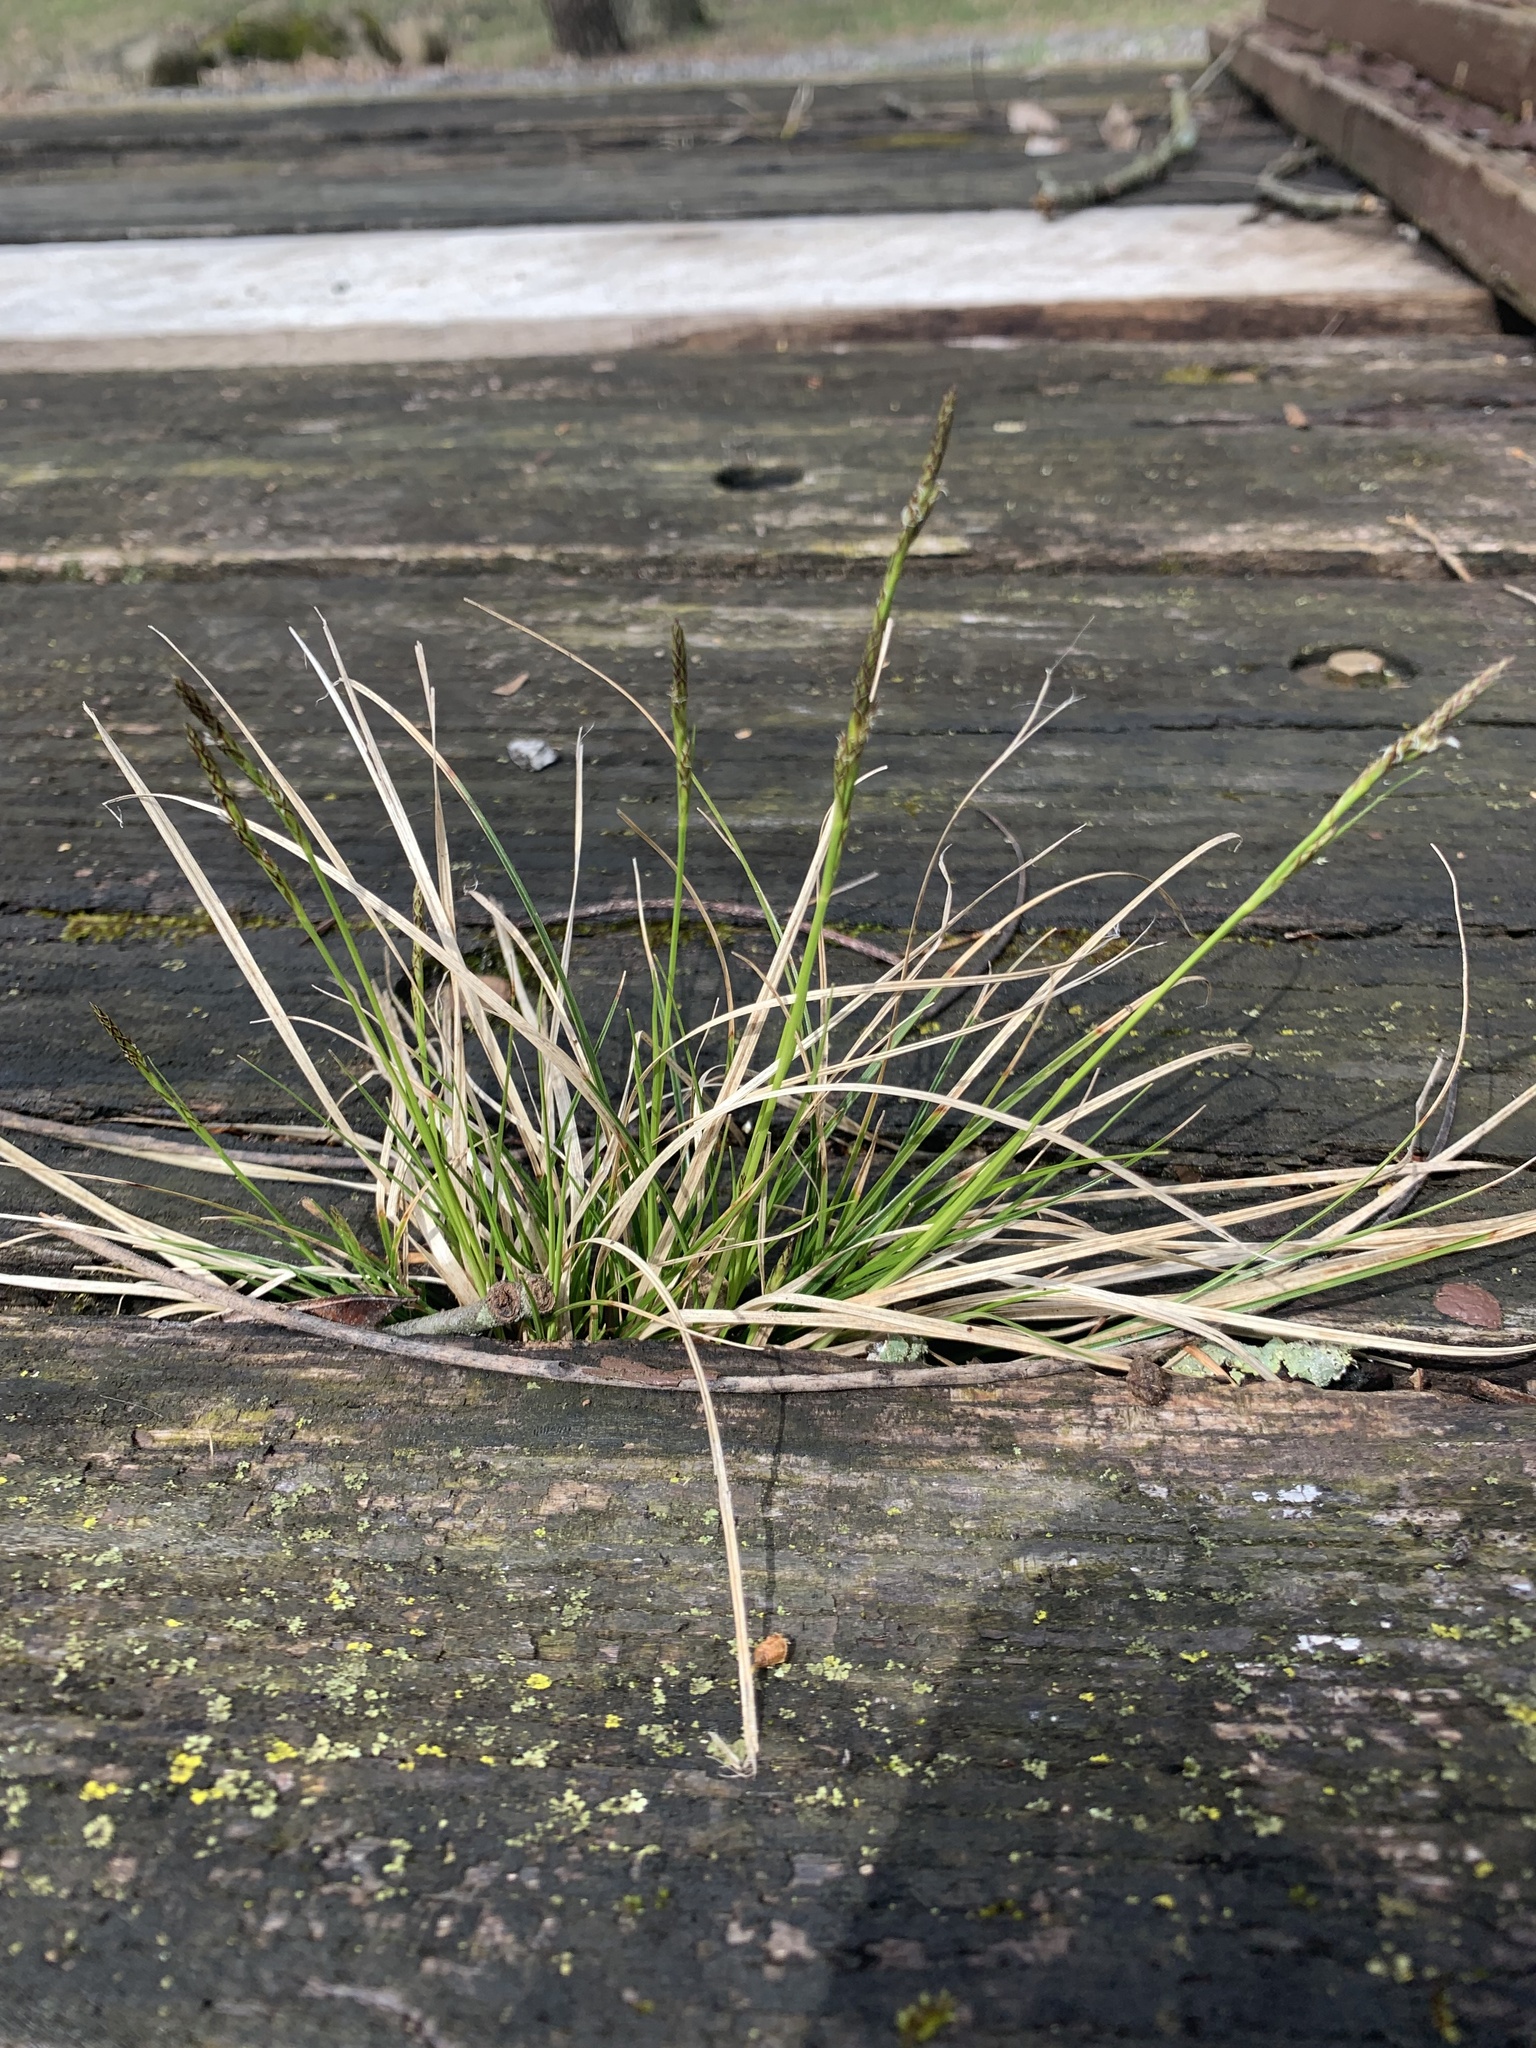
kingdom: Plantae
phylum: Tracheophyta
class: Liliopsida
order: Poales
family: Cyperaceae
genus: Carex
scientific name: Carex pensylvanica
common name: Common oak sedge
